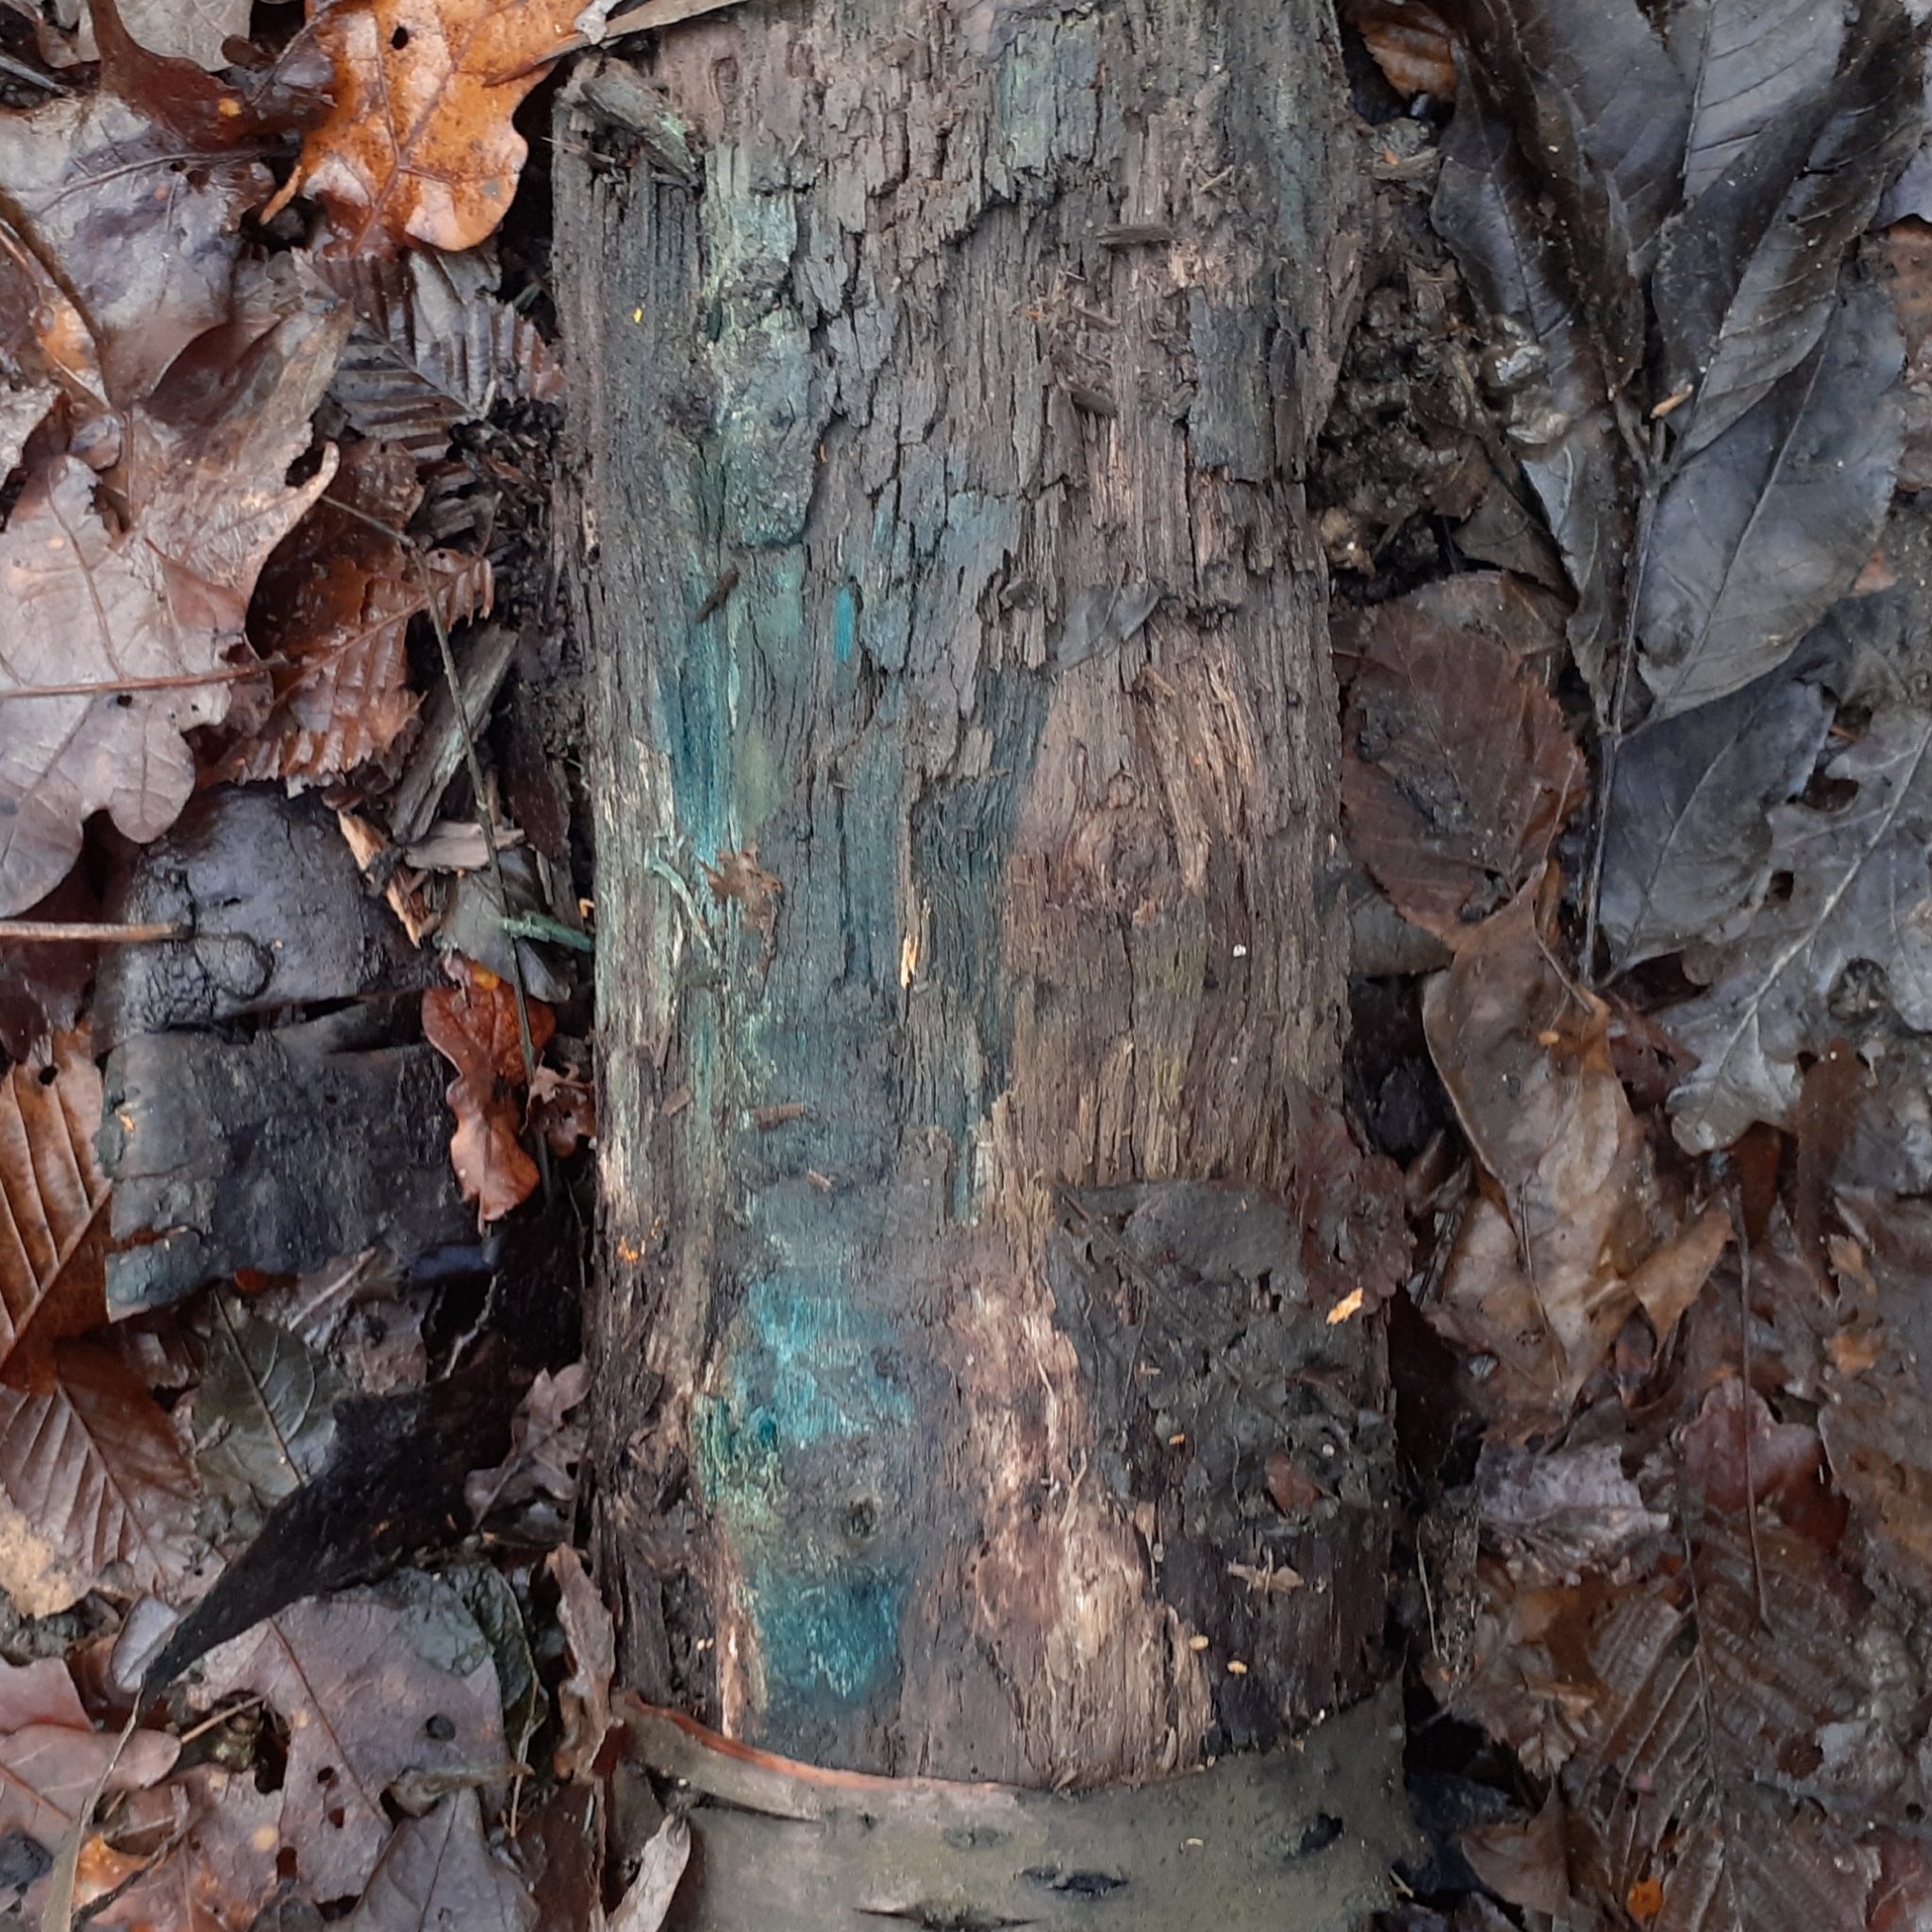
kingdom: Fungi
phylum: Ascomycota
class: Leotiomycetes
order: Helotiales
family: Chlorociboriaceae
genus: Chlorociboria
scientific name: Chlorociboria
